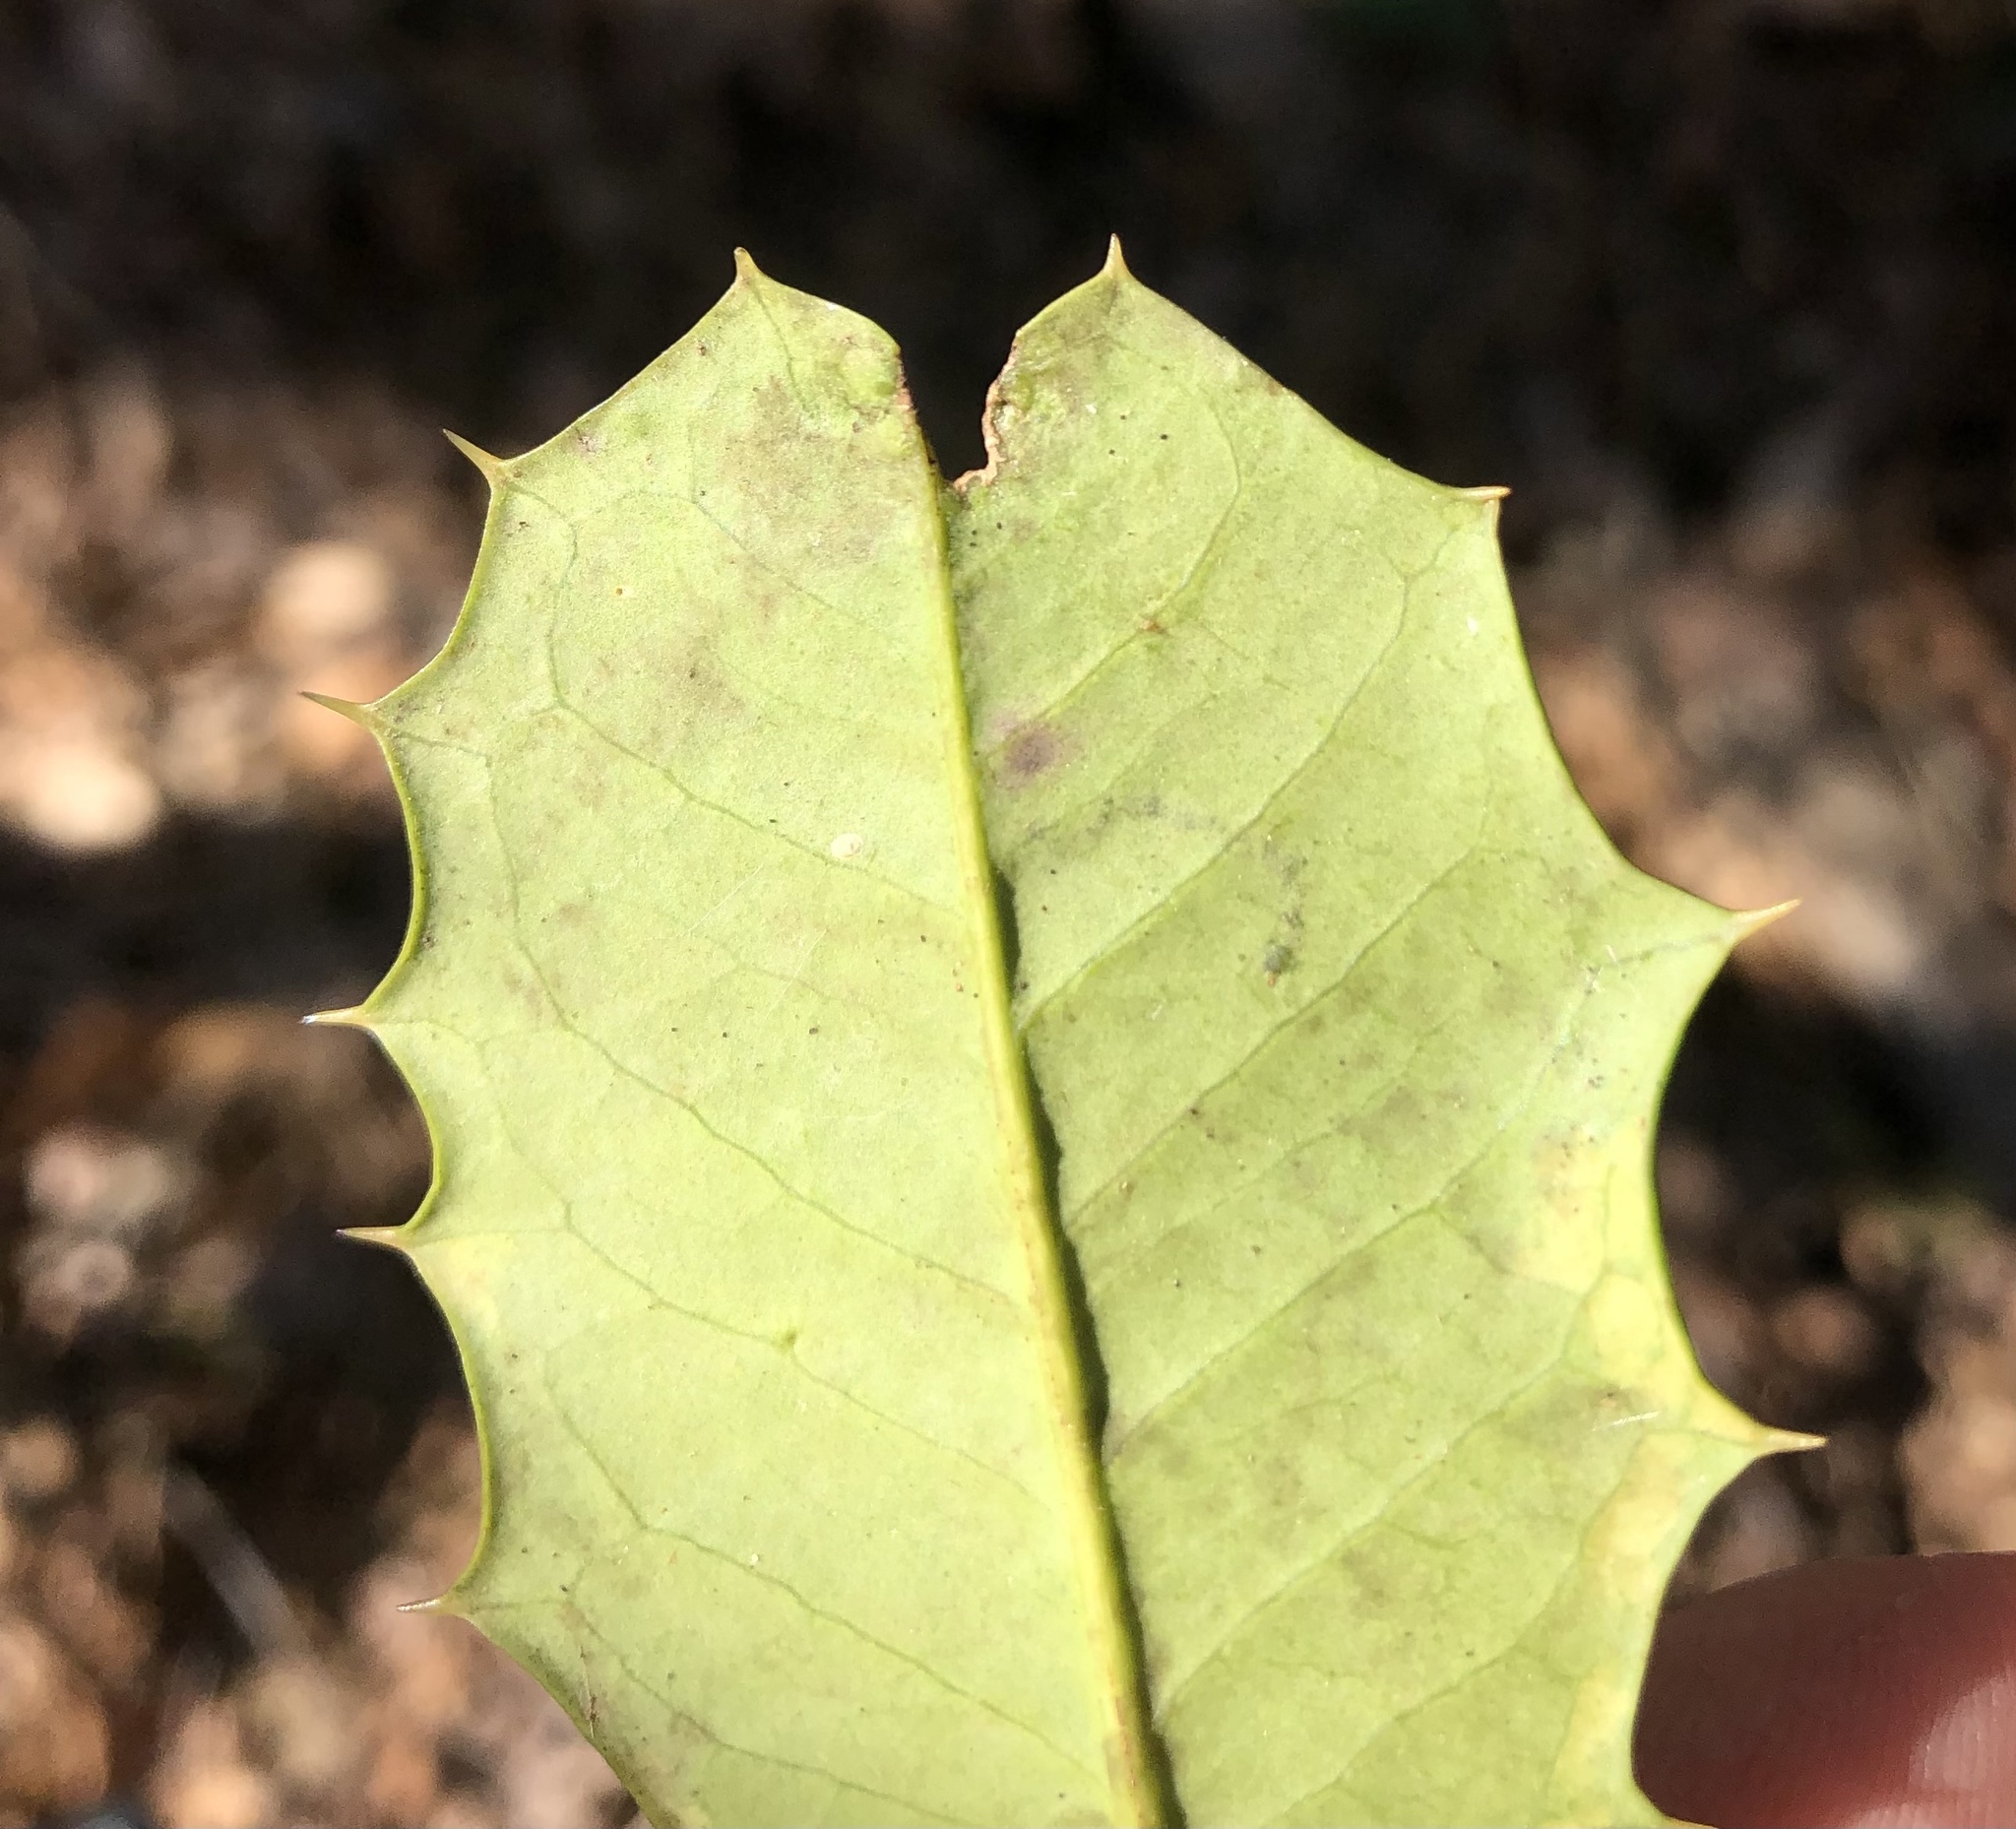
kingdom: Animalia
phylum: Arthropoda
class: Insecta
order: Diptera
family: Agromyzidae
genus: Phytomyza
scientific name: Phytomyza ilicicola
